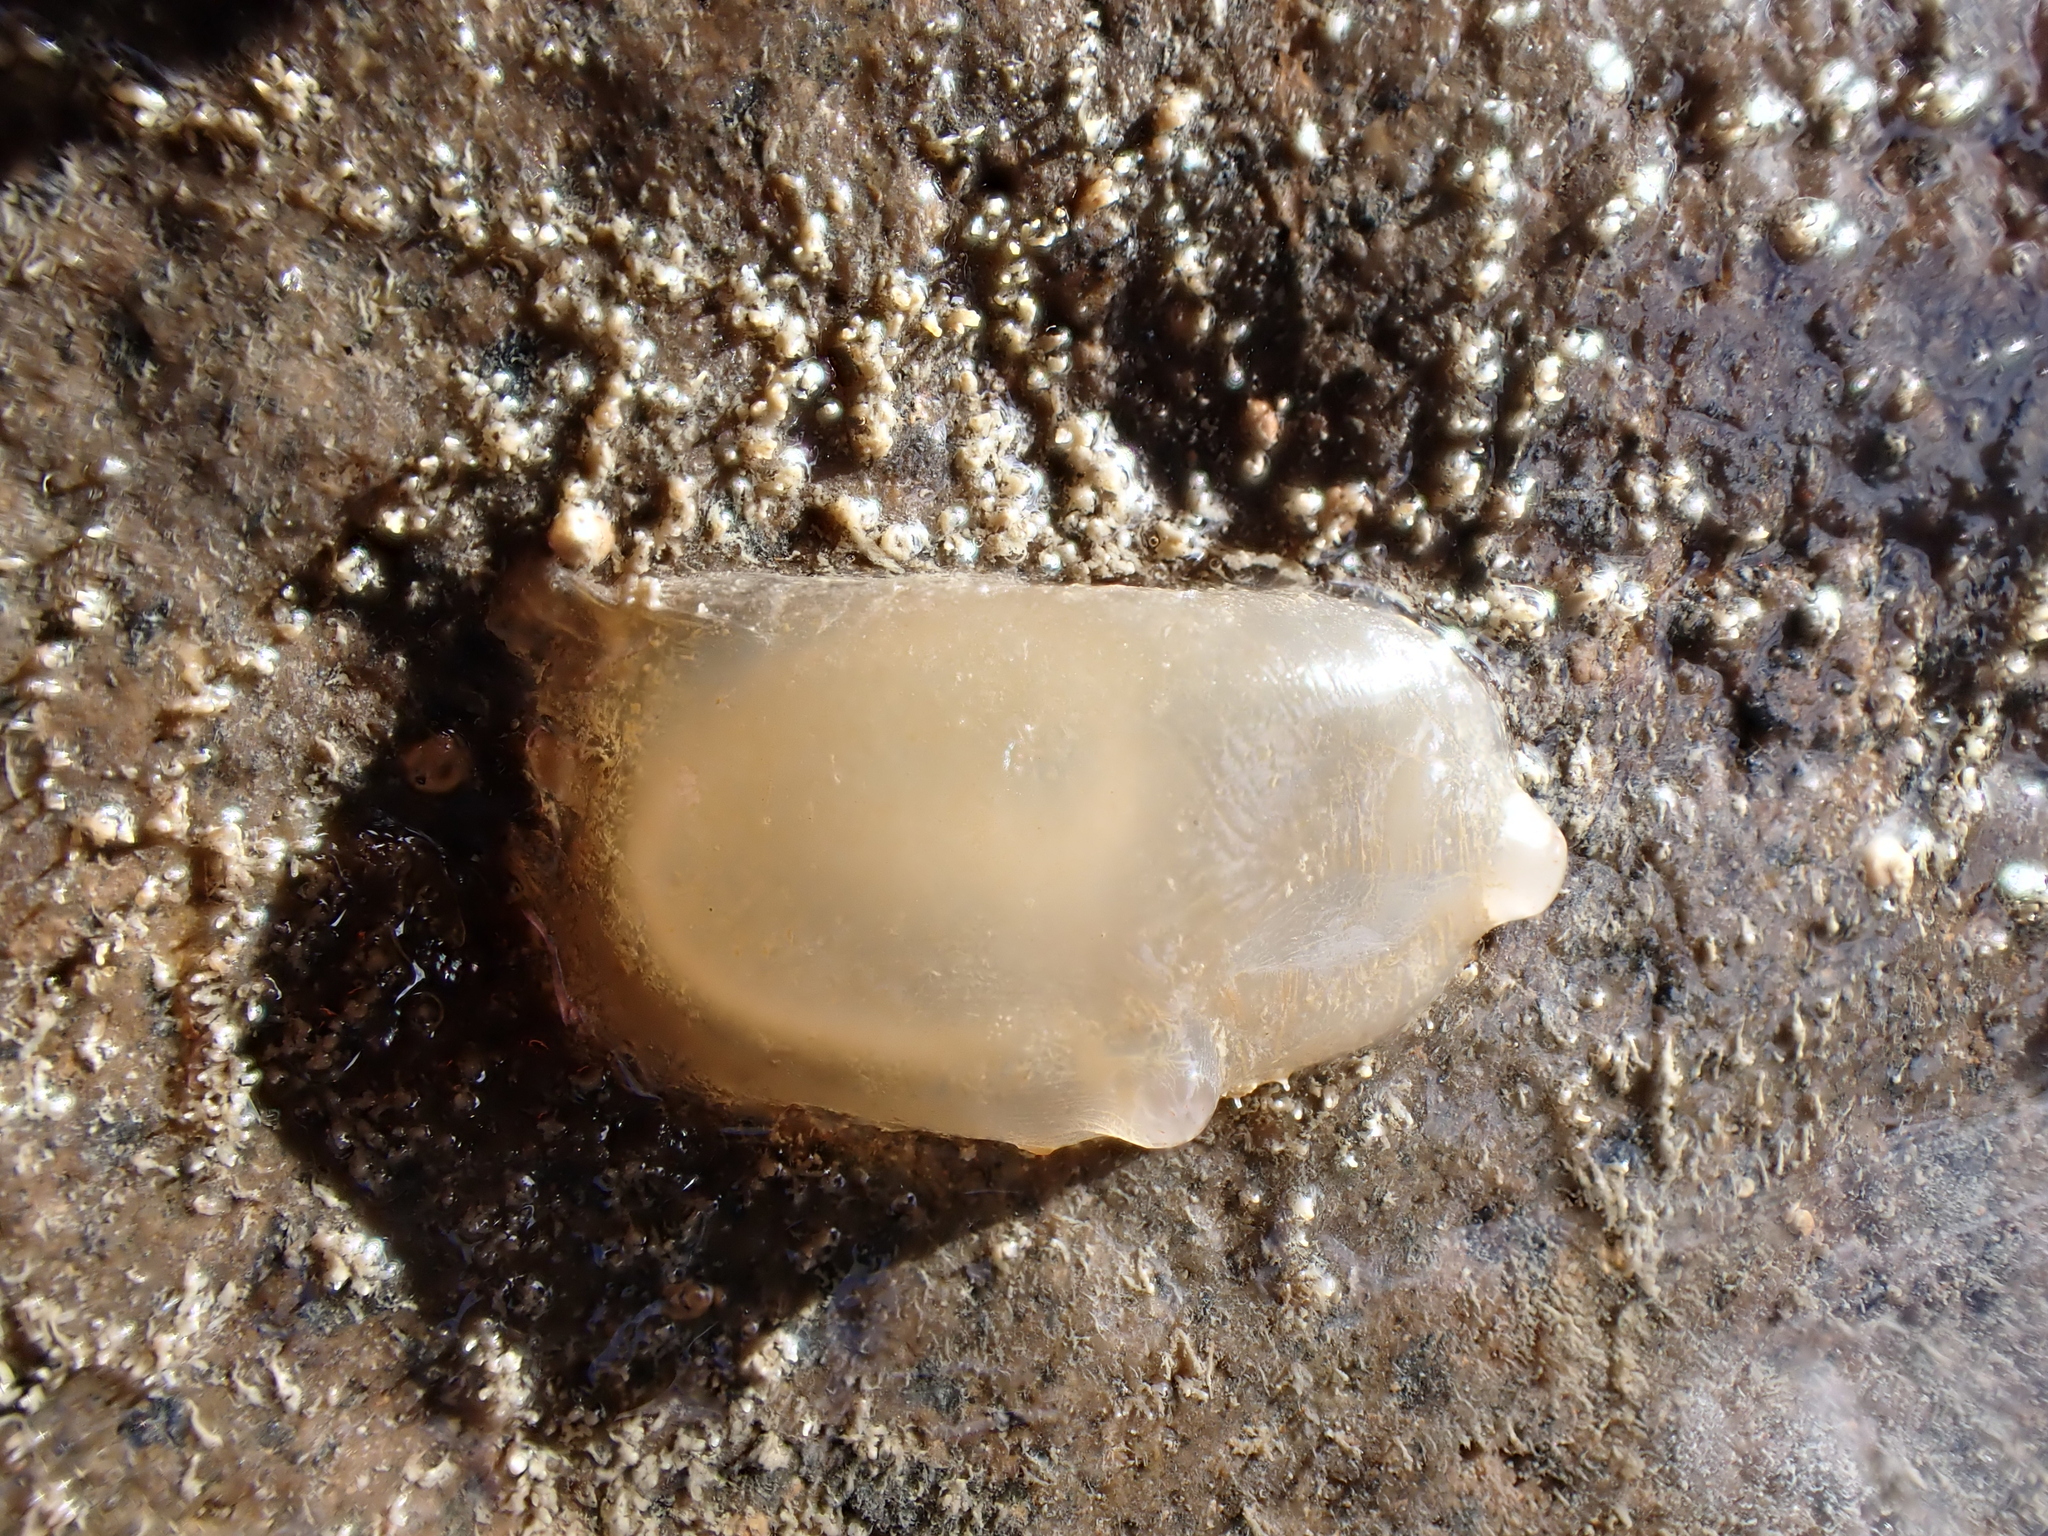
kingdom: Animalia
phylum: Chordata
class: Ascidiacea
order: Phlebobranchia
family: Agneziidae
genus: Agnezia
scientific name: Agnezia glaciata
